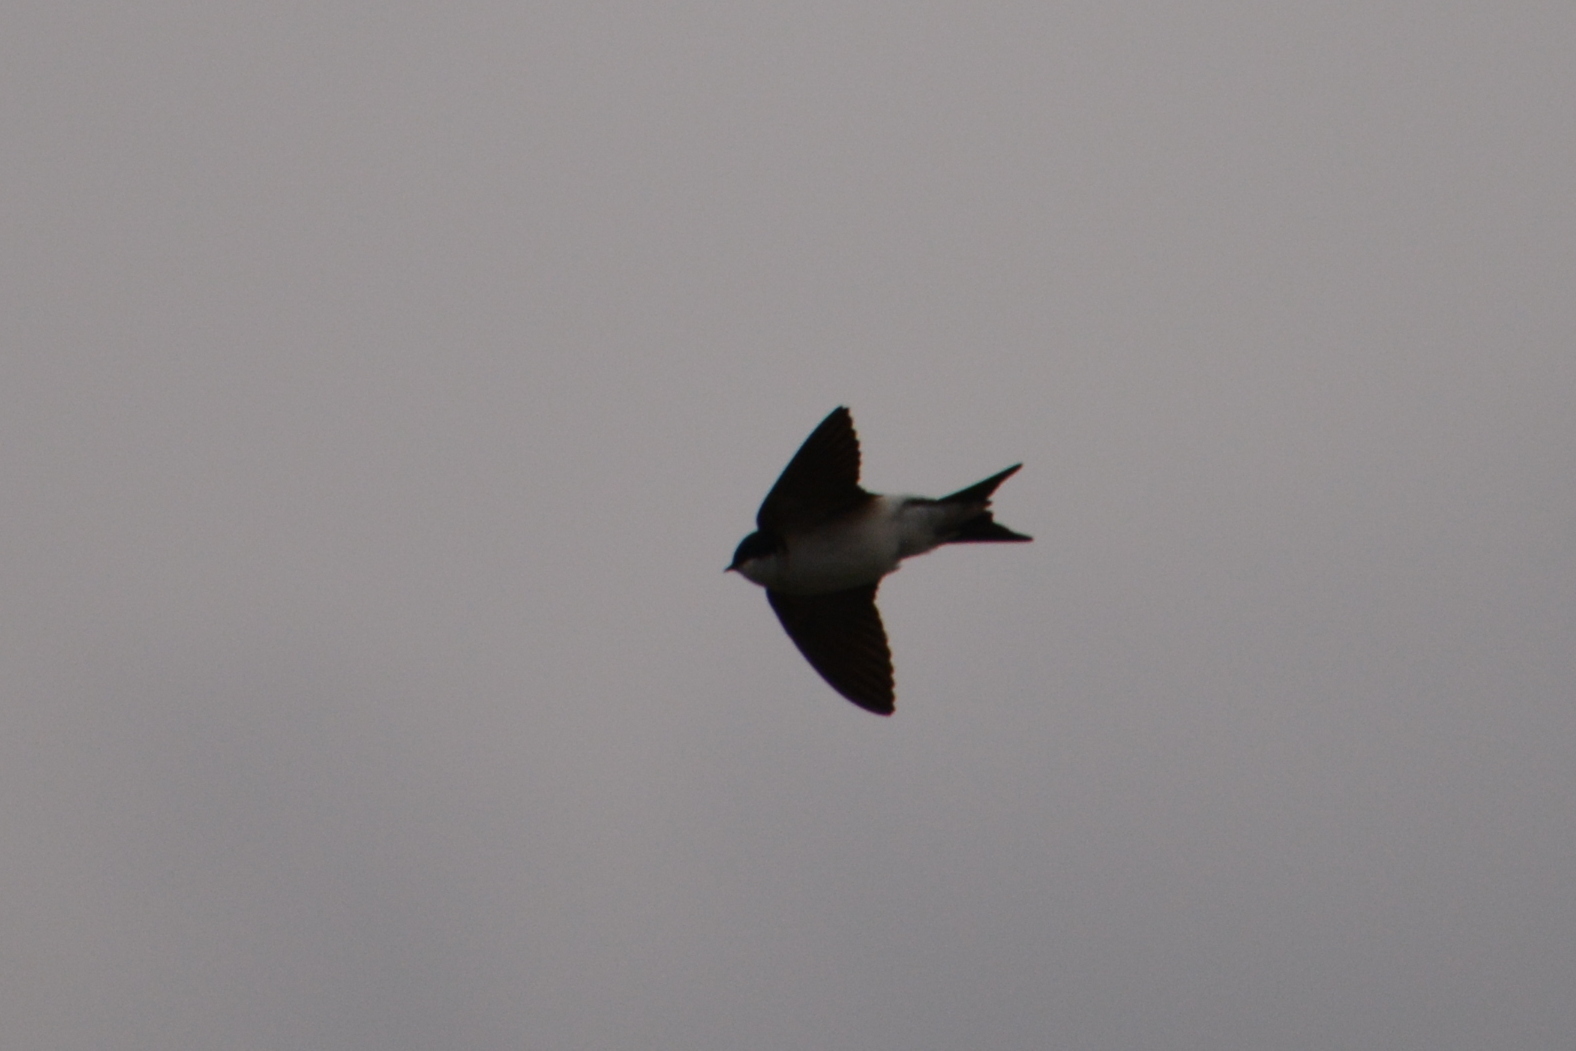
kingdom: Animalia
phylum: Chordata
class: Aves
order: Passeriformes
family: Hirundinidae
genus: Delichon
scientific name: Delichon urbicum
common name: Common house martin
